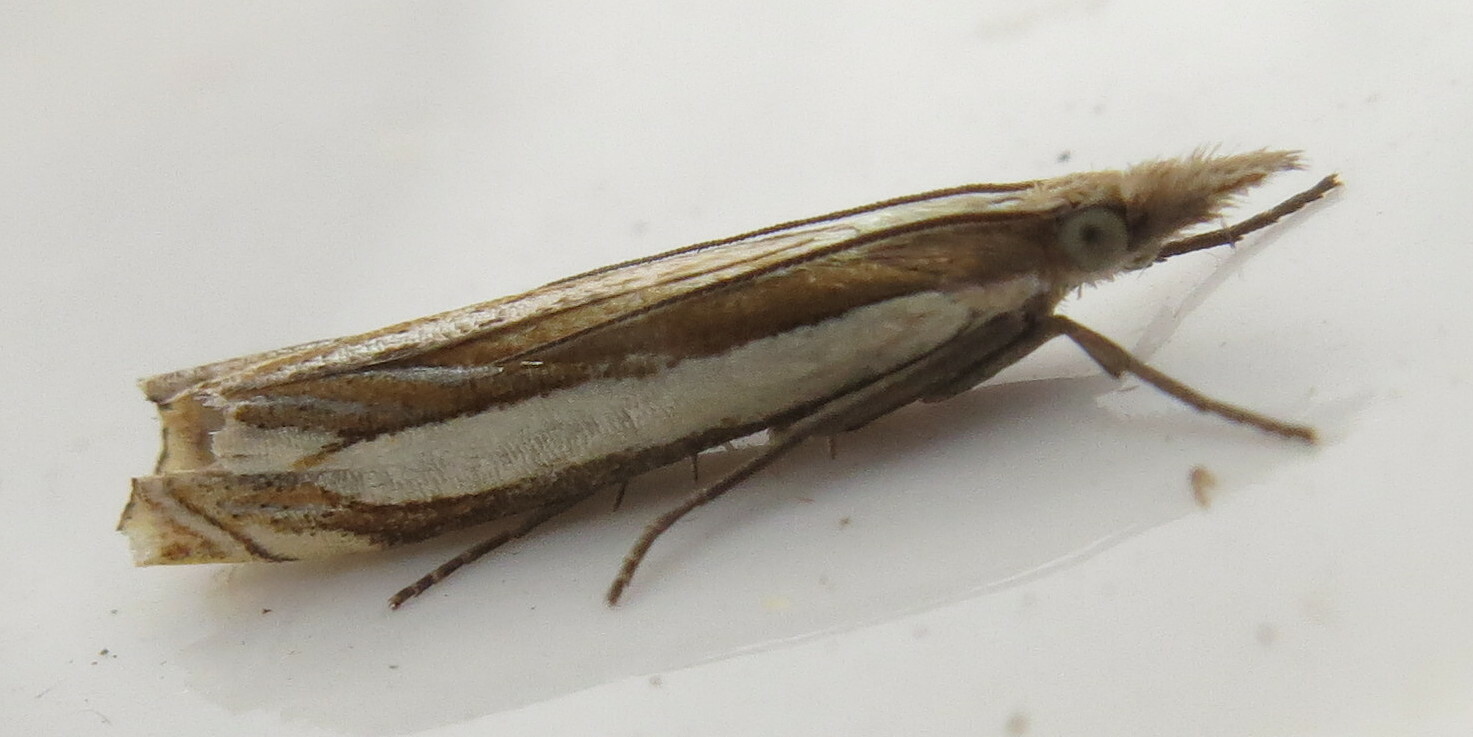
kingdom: Animalia
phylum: Arthropoda
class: Insecta
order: Lepidoptera
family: Crambidae
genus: Crambus
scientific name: Crambus pascuella
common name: Inlaid grass-veneer
